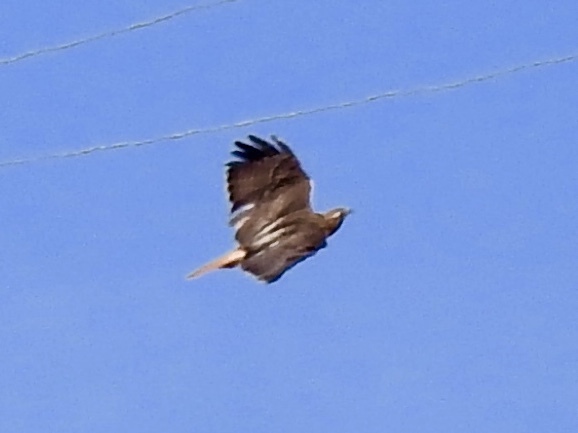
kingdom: Animalia
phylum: Chordata
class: Aves
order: Accipitriformes
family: Accipitridae
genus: Buteo
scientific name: Buteo jamaicensis
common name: Red-tailed hawk
